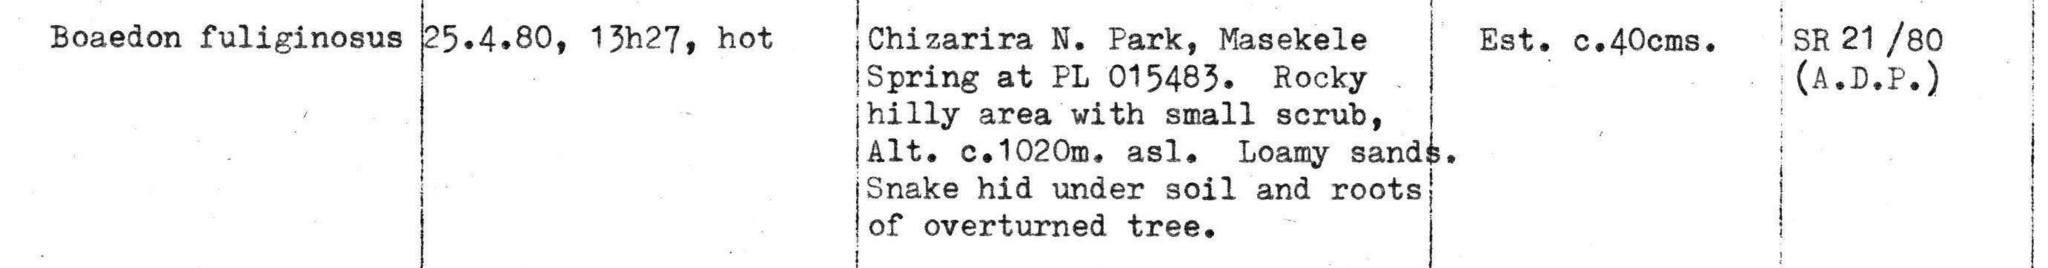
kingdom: Animalia
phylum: Chordata
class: Squamata
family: Lamprophiidae
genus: Boaedon
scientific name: Boaedon
